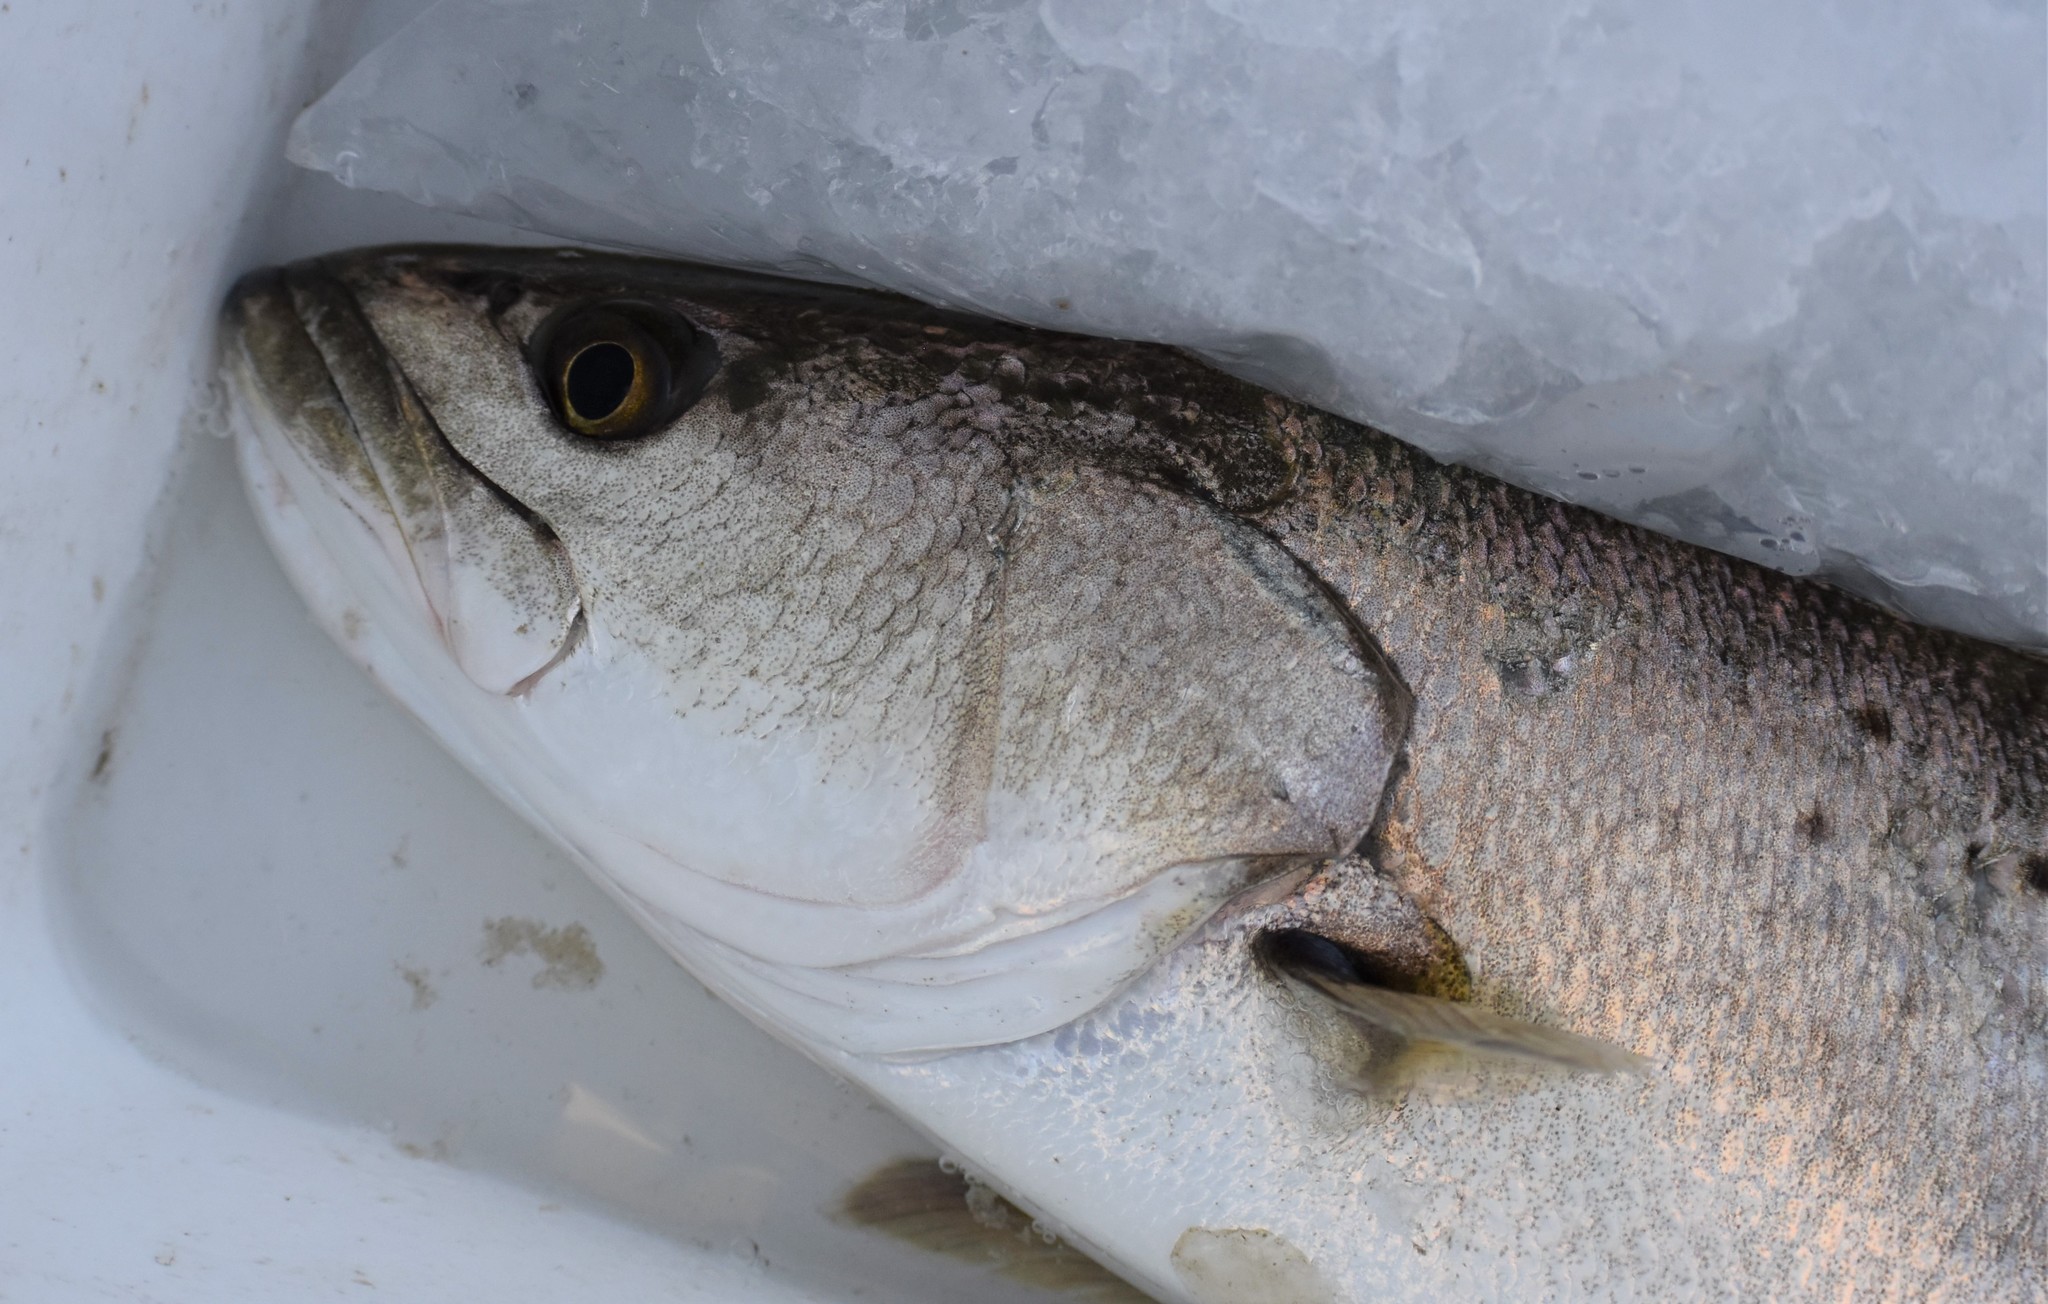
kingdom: Animalia
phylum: Chordata
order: Perciformes
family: Sciaenidae
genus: Cynoscion
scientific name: Cynoscion nebulosus
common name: Spotted seatrout
